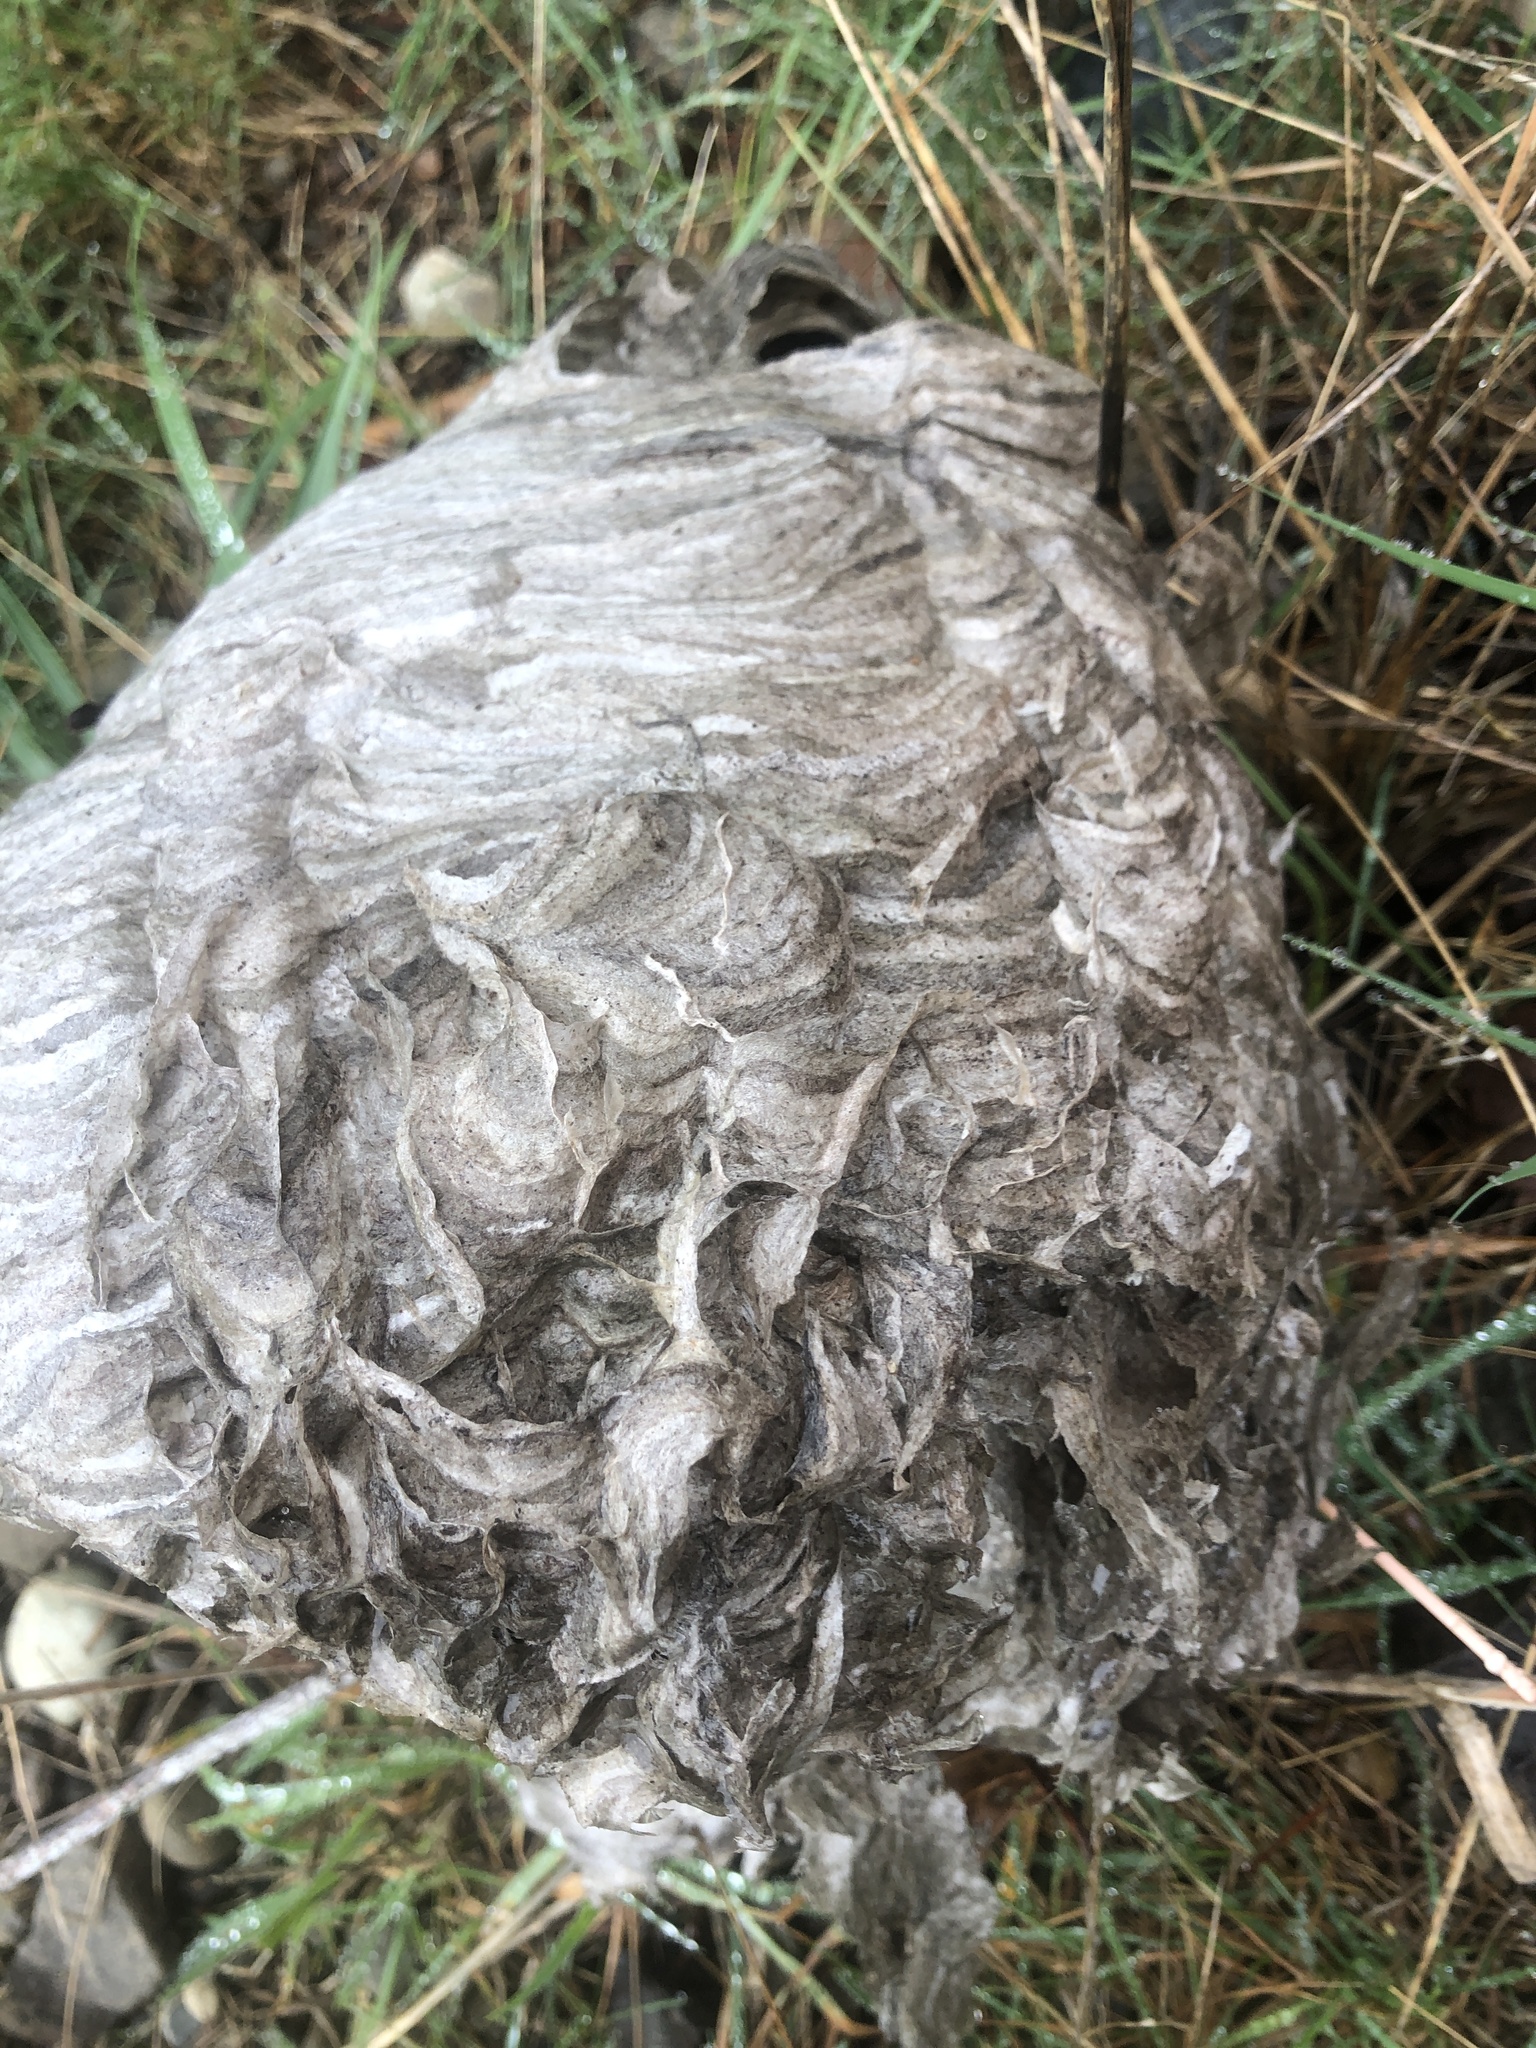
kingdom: Animalia
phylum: Arthropoda
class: Insecta
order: Hymenoptera
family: Vespidae
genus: Dolichovespula
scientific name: Dolichovespula
